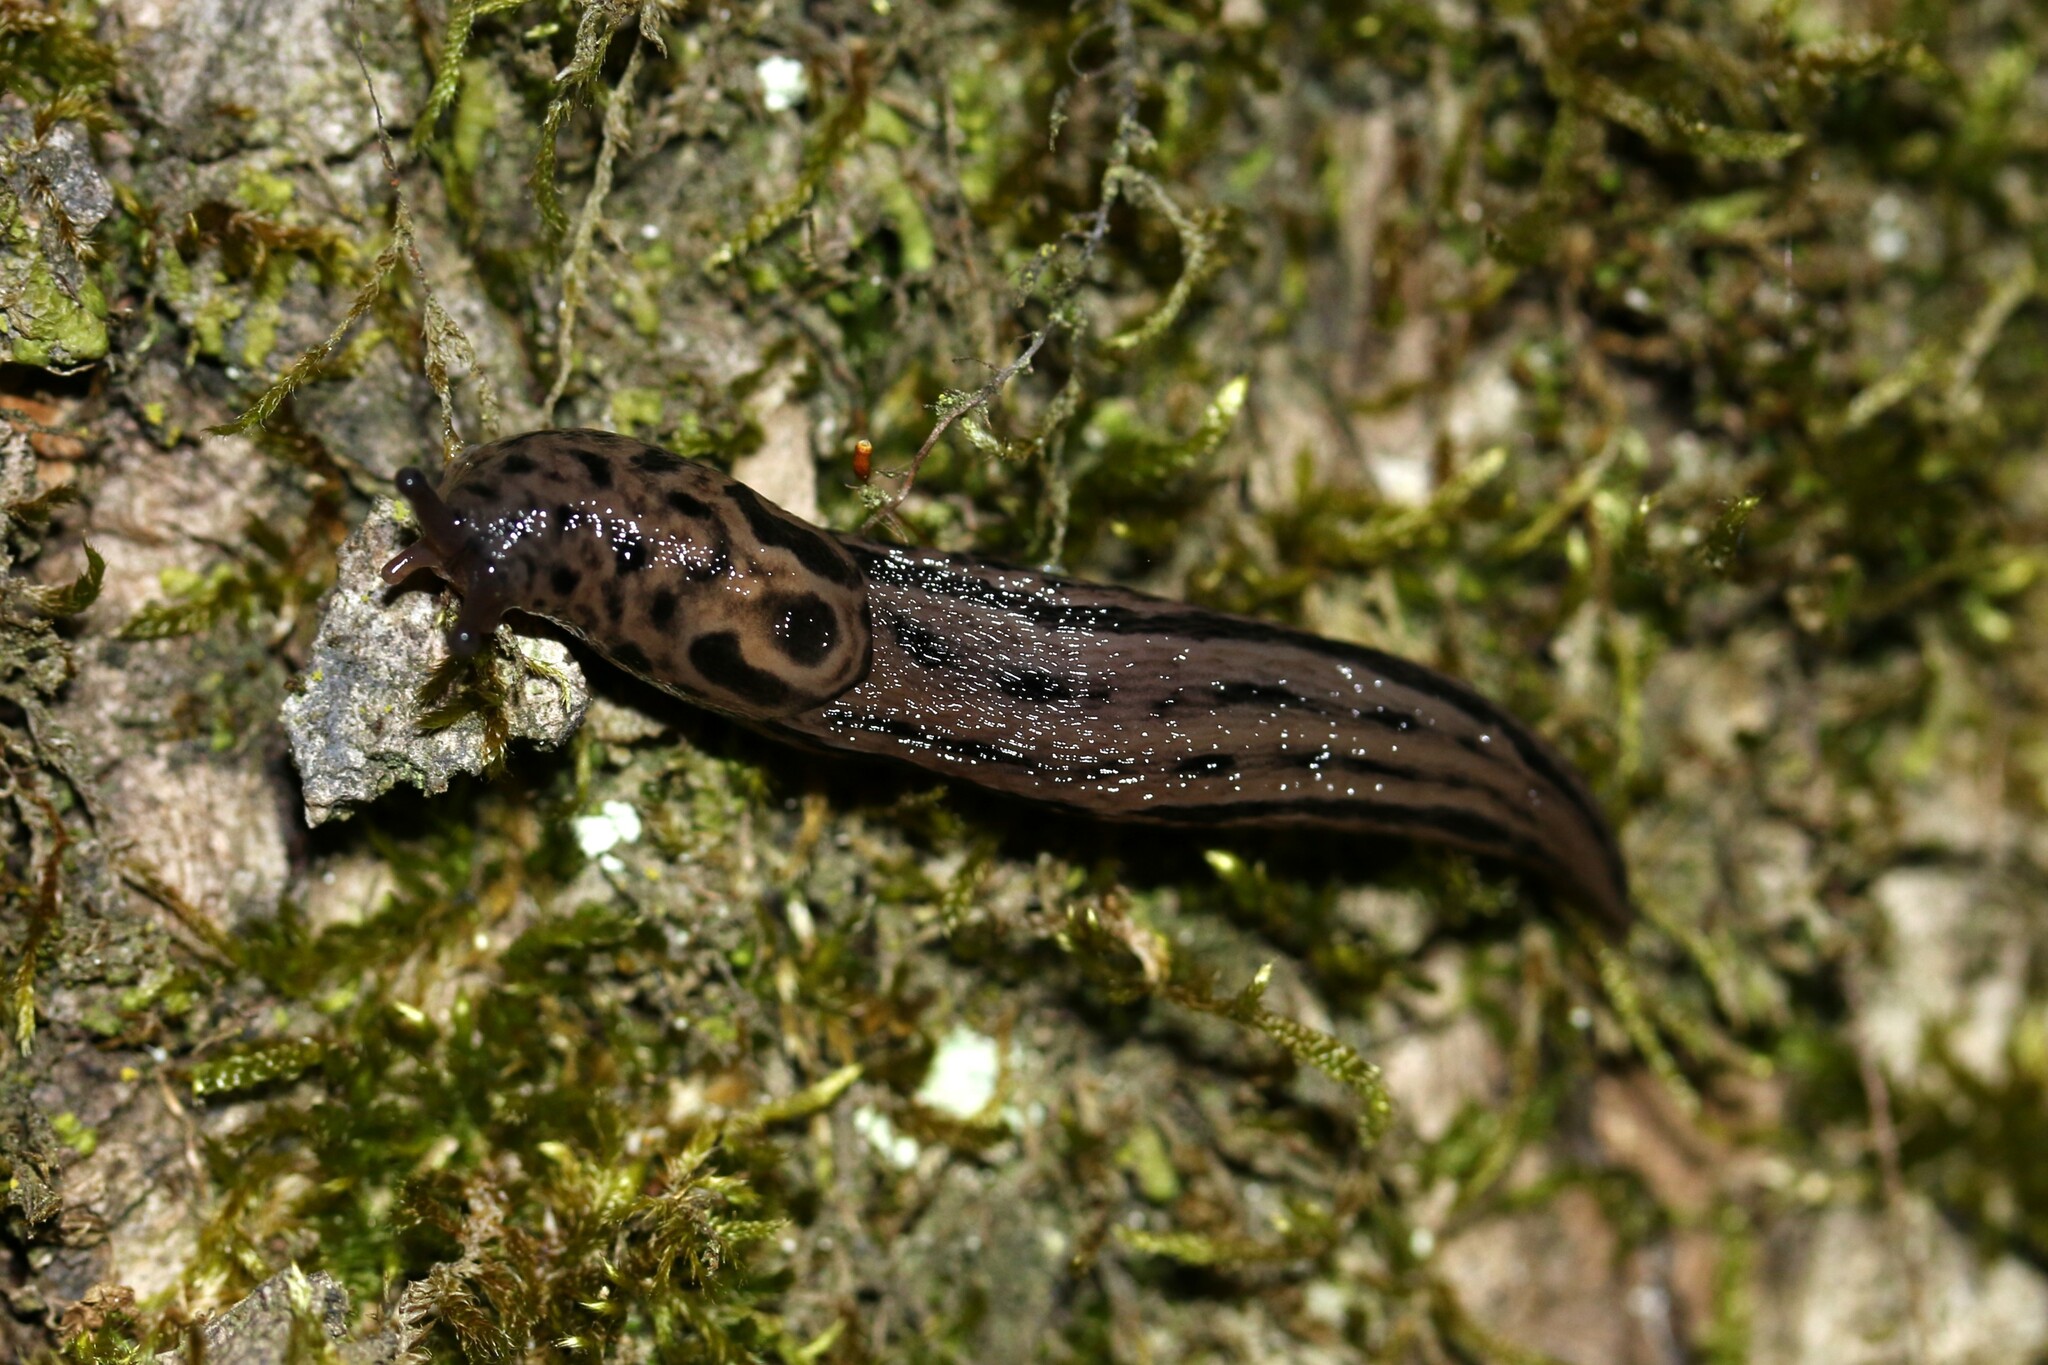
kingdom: Animalia
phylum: Mollusca
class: Gastropoda
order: Stylommatophora
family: Limacidae
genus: Limax
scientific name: Limax maximus
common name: Great grey slug
